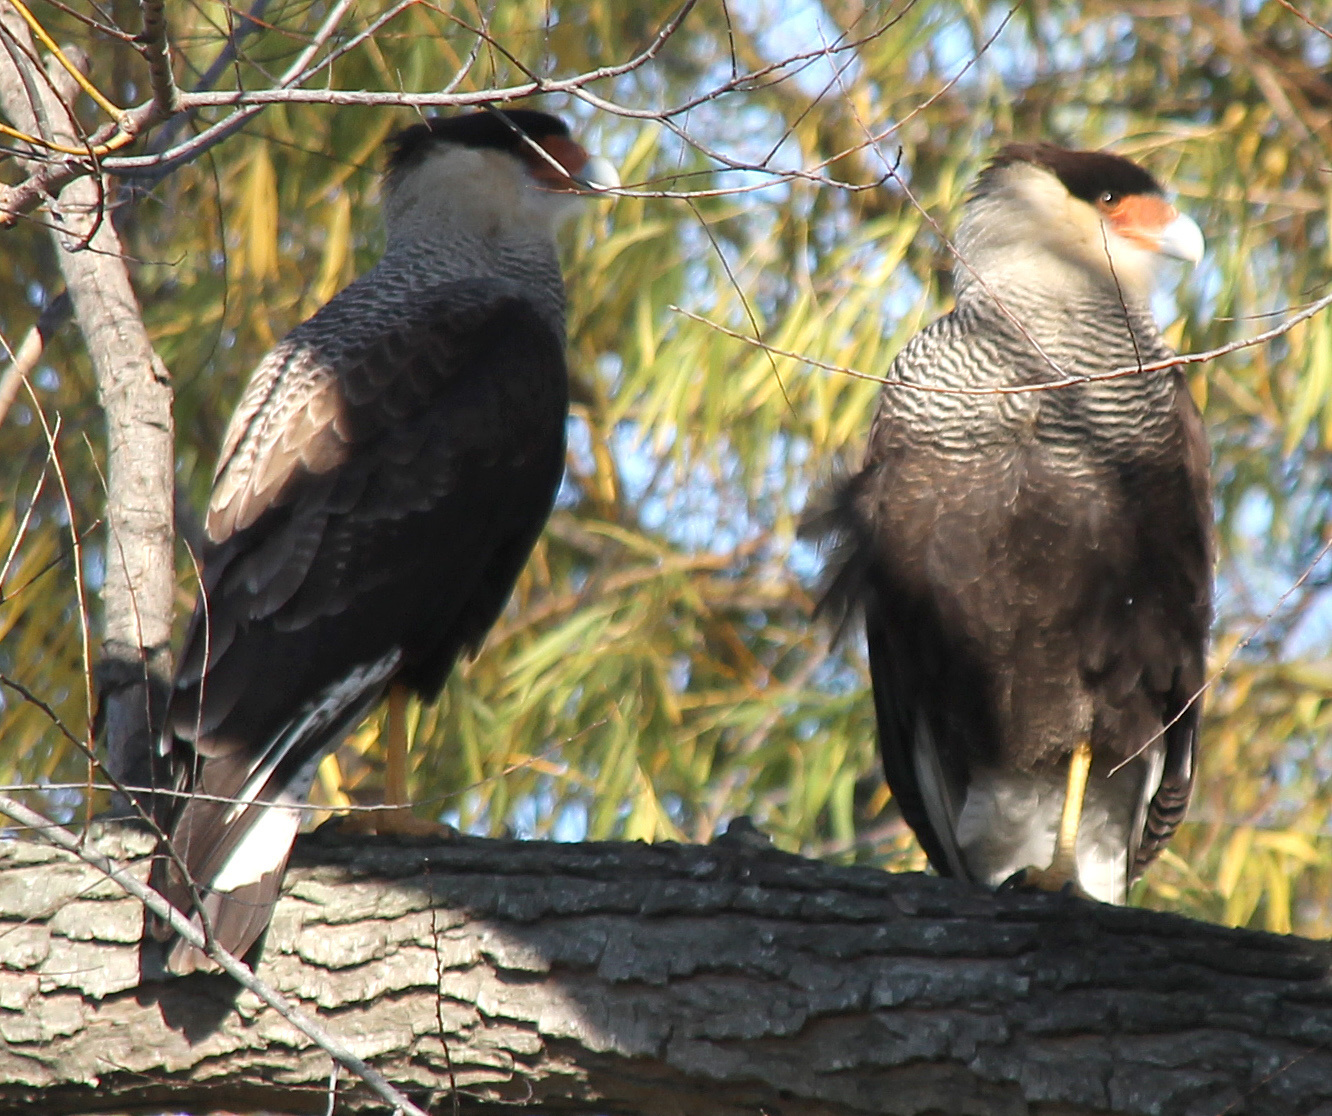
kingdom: Animalia
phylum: Chordata
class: Aves
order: Falconiformes
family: Falconidae
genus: Caracara
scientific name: Caracara plancus
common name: Southern caracara
